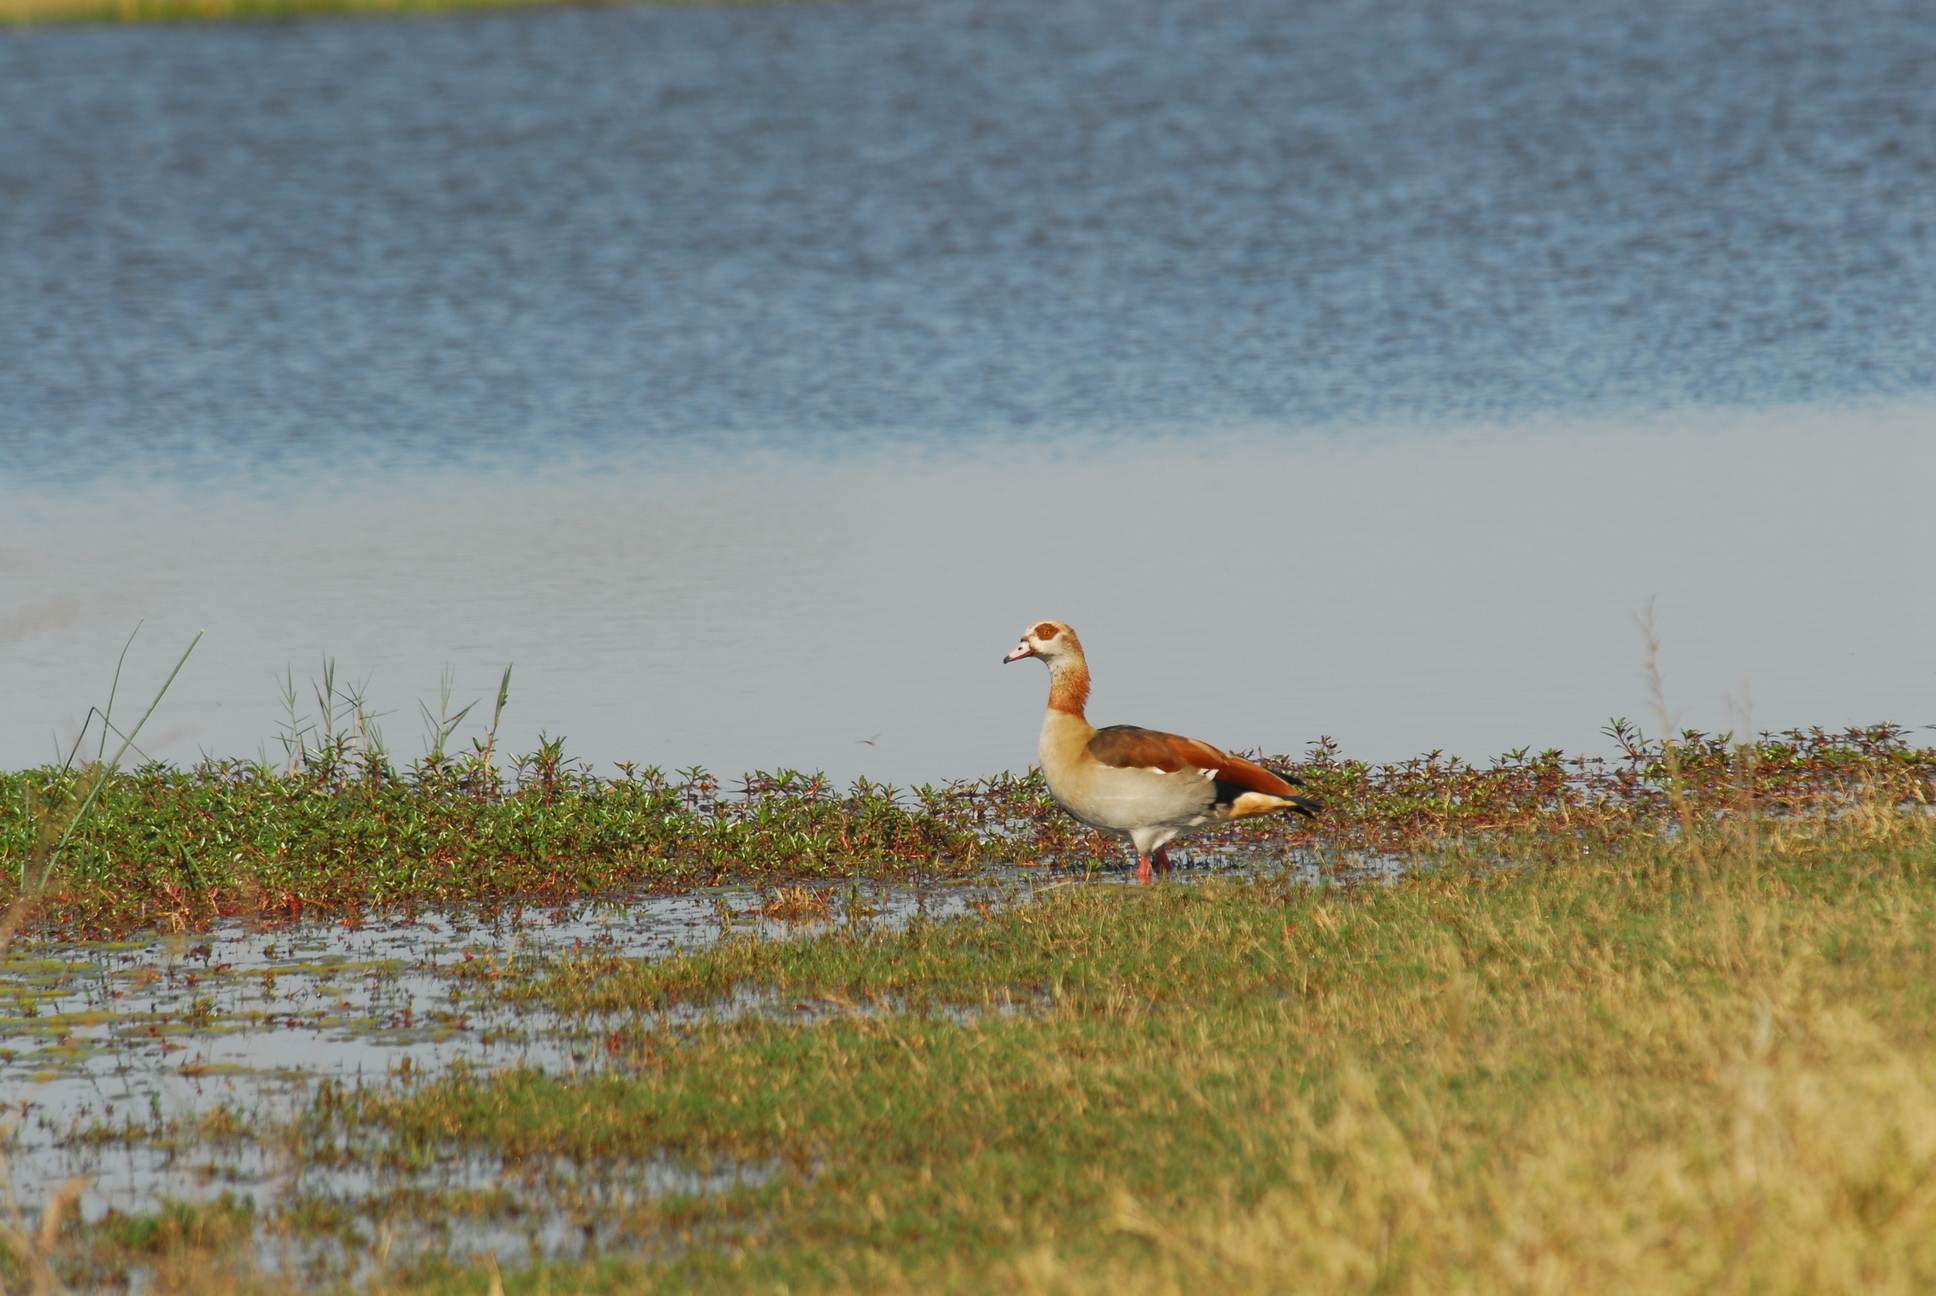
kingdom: Animalia
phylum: Chordata
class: Aves
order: Anseriformes
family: Anatidae
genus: Alopochen
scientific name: Alopochen aegyptiaca
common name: Egyptian goose
